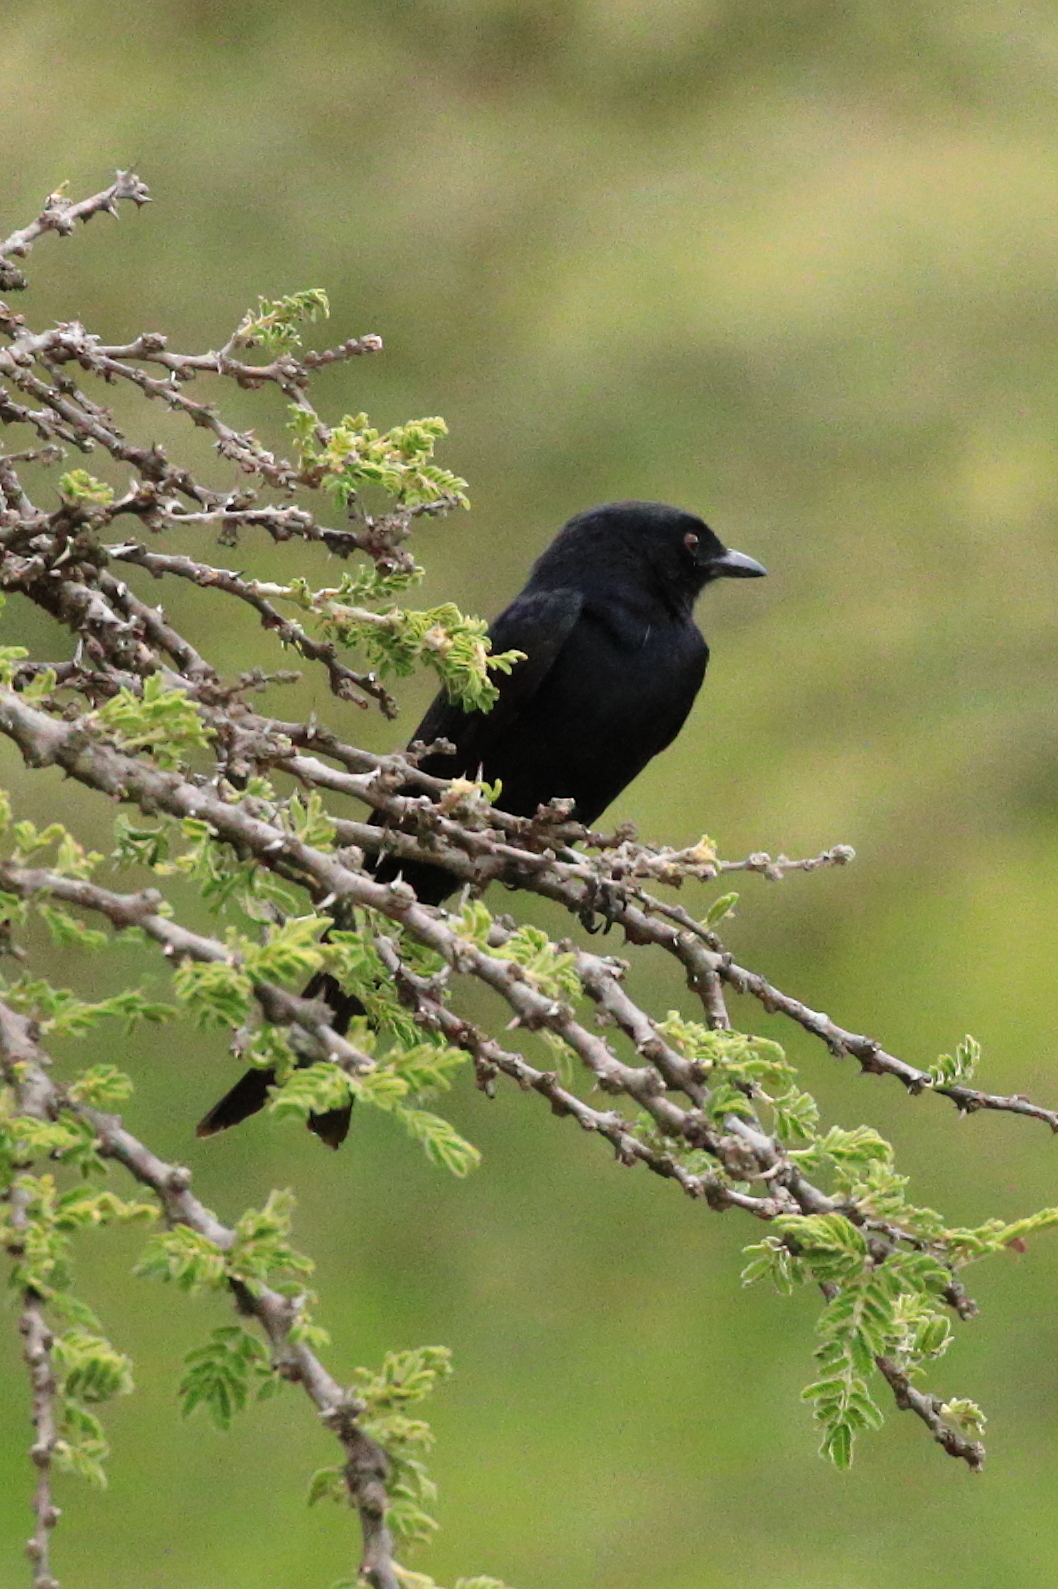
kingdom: Animalia
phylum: Chordata
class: Aves
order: Passeriformes
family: Dicruridae
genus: Dicrurus
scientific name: Dicrurus adsimilis
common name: Fork-tailed drongo
